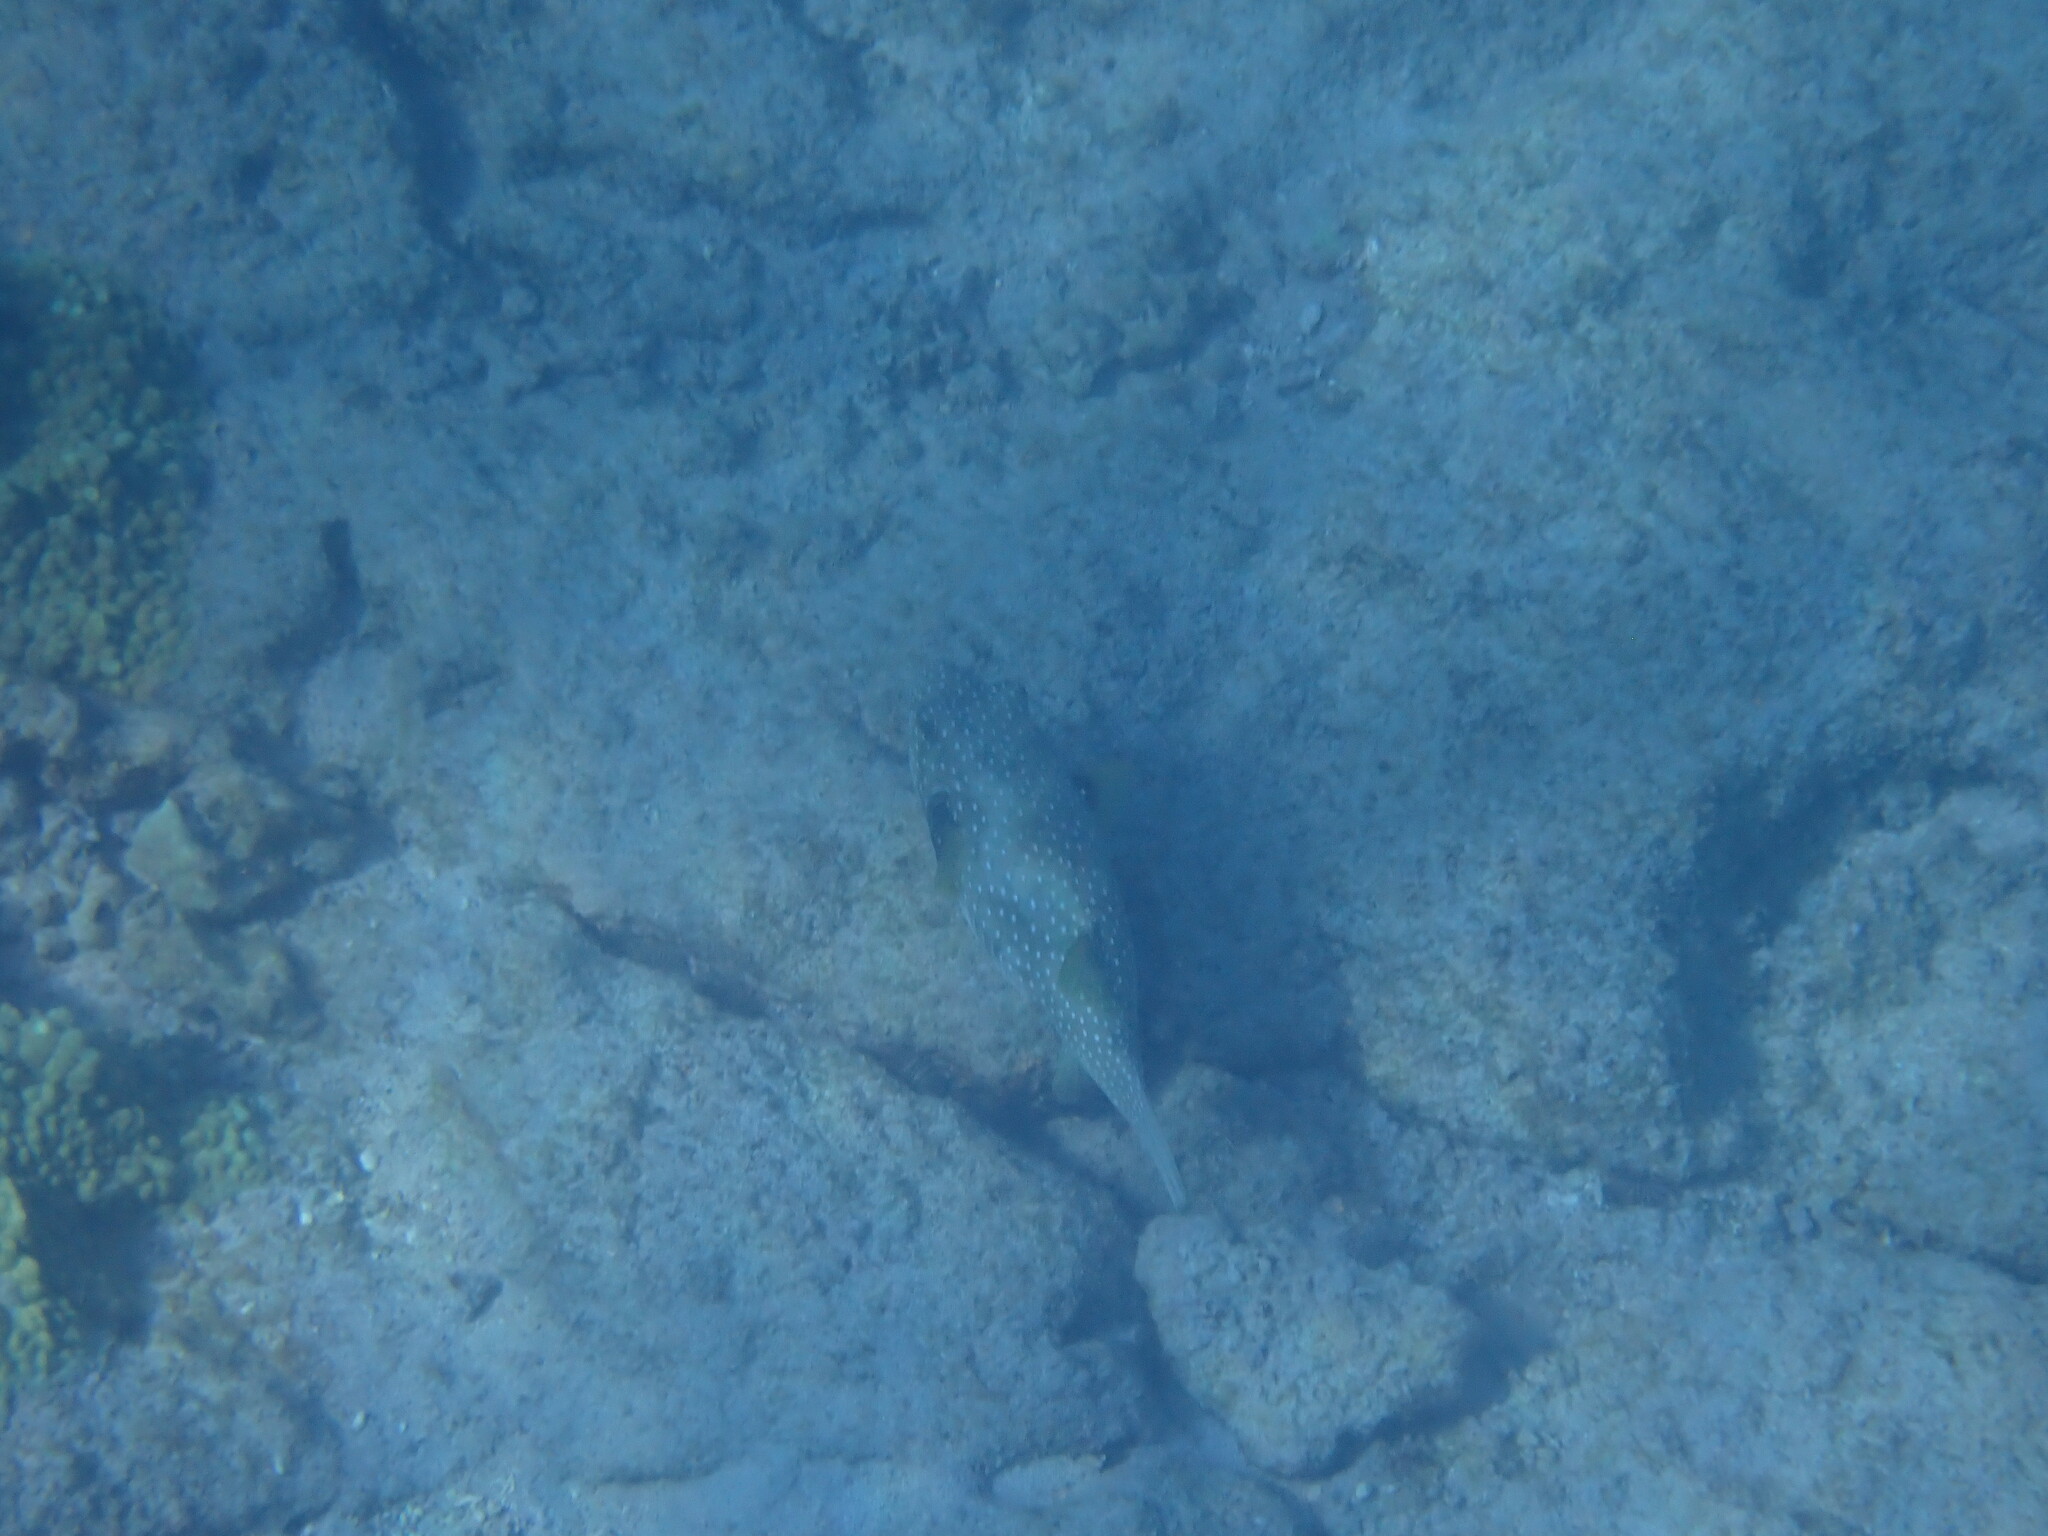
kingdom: Animalia
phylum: Chordata
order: Tetraodontiformes
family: Tetraodontidae
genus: Arothron
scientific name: Arothron hispidus
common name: Stripebelly puffer
